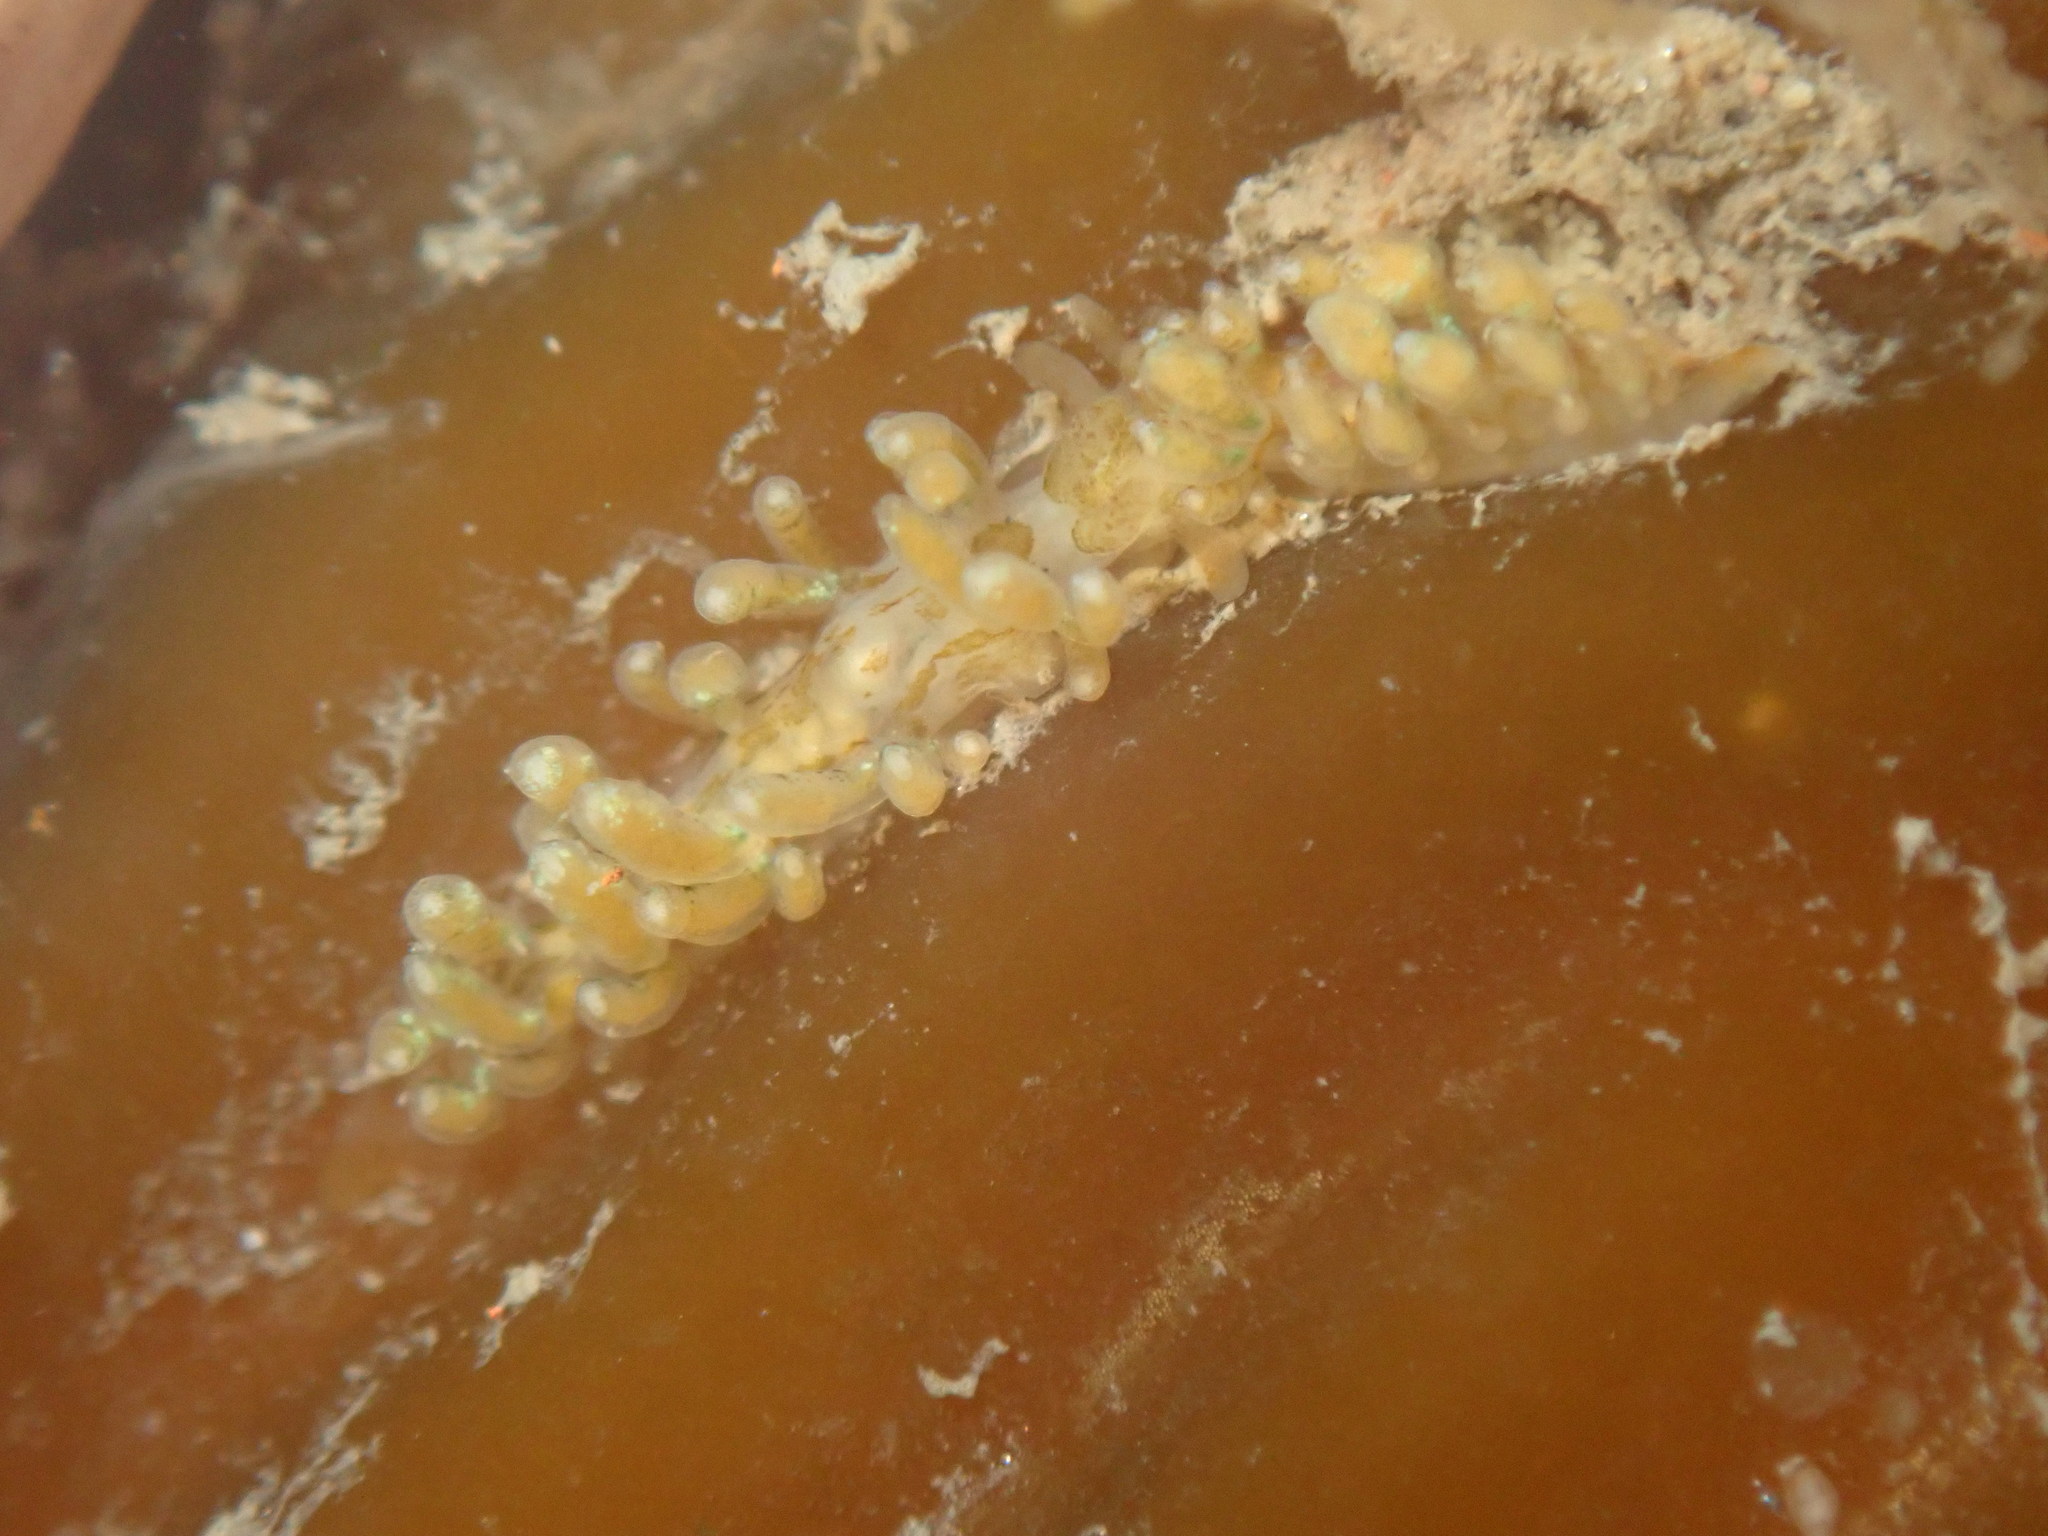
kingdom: Animalia
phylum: Mollusca
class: Gastropoda
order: Nudibranchia
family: Eubranchidae
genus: Eubranchus
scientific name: Eubranchus rustyus
